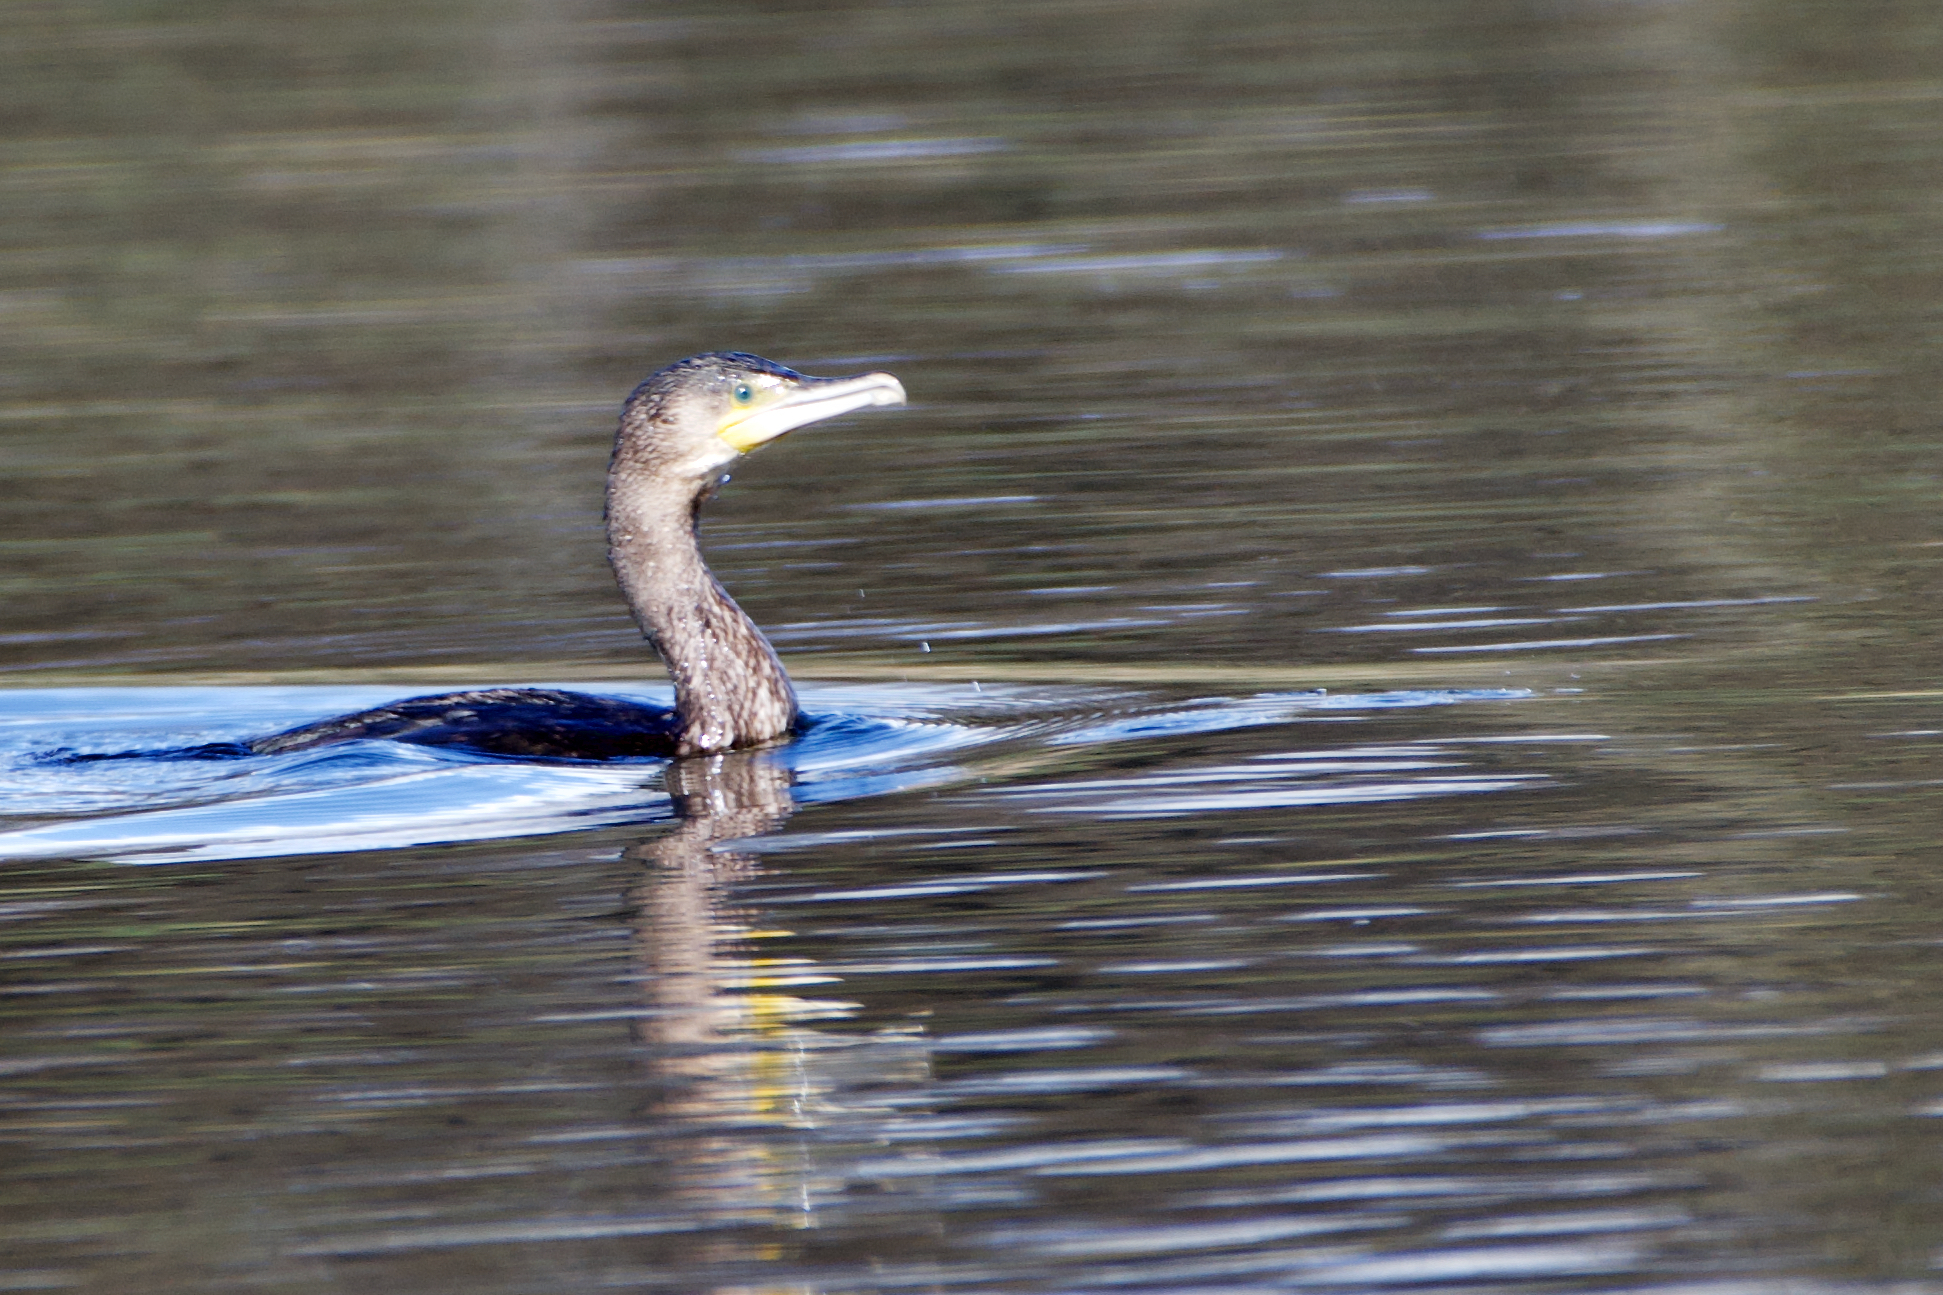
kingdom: Animalia
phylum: Chordata
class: Aves
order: Suliformes
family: Phalacrocoracidae
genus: Phalacrocorax
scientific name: Phalacrocorax carbo
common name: Great cormorant
